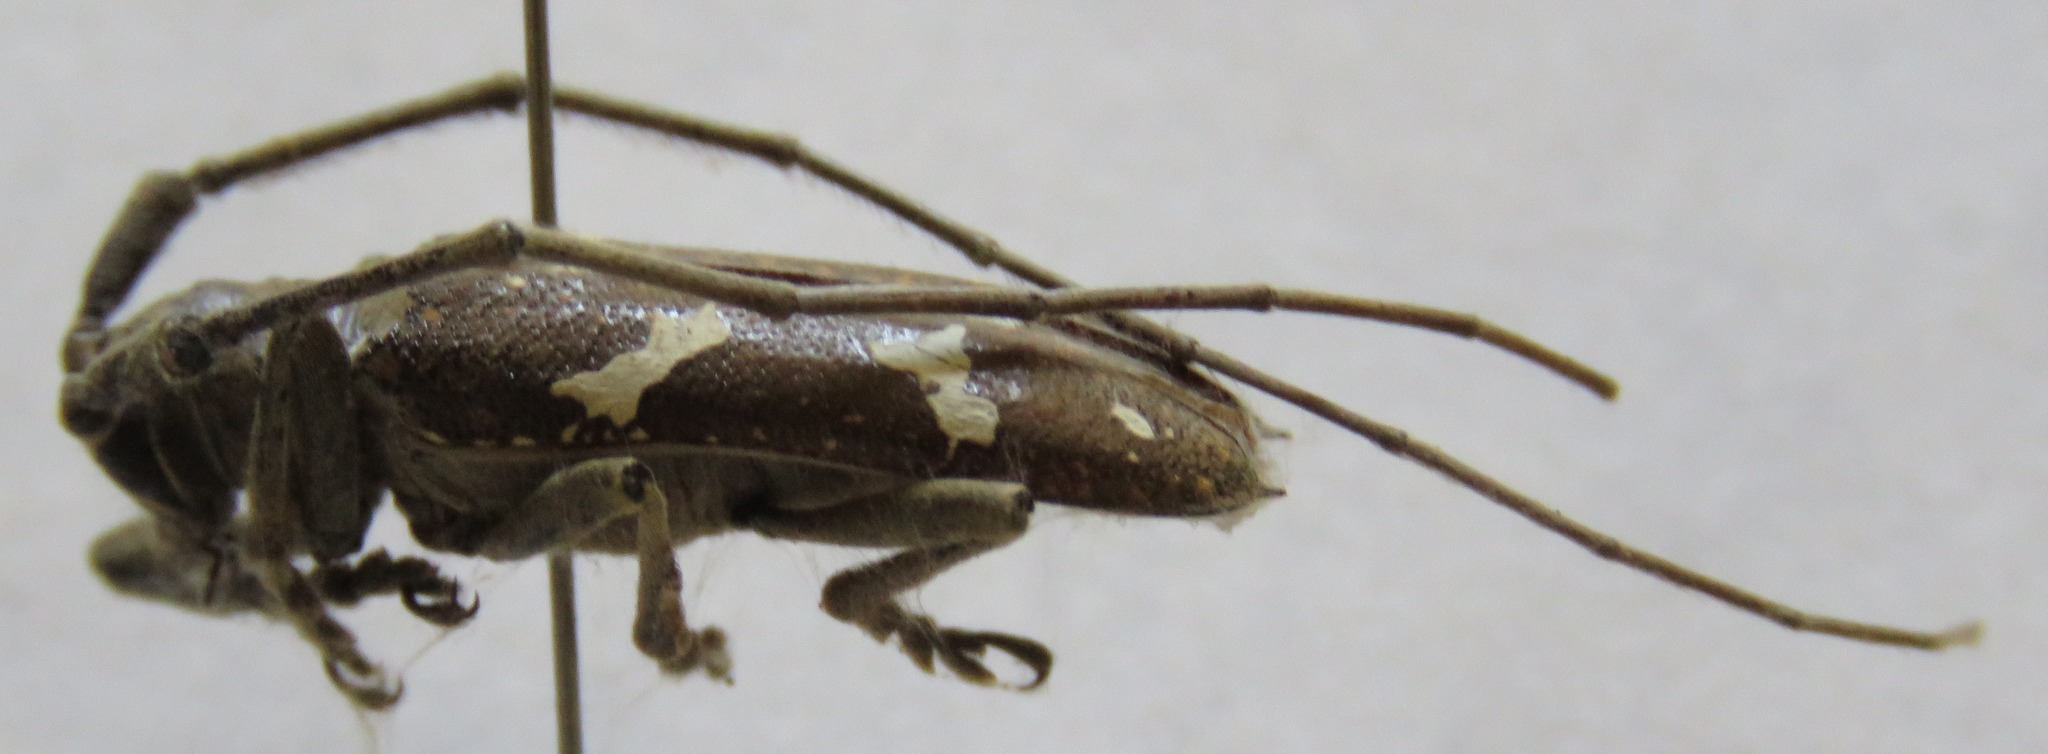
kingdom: Animalia
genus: Hammatoderus
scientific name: Hammatoderus thoracicus
